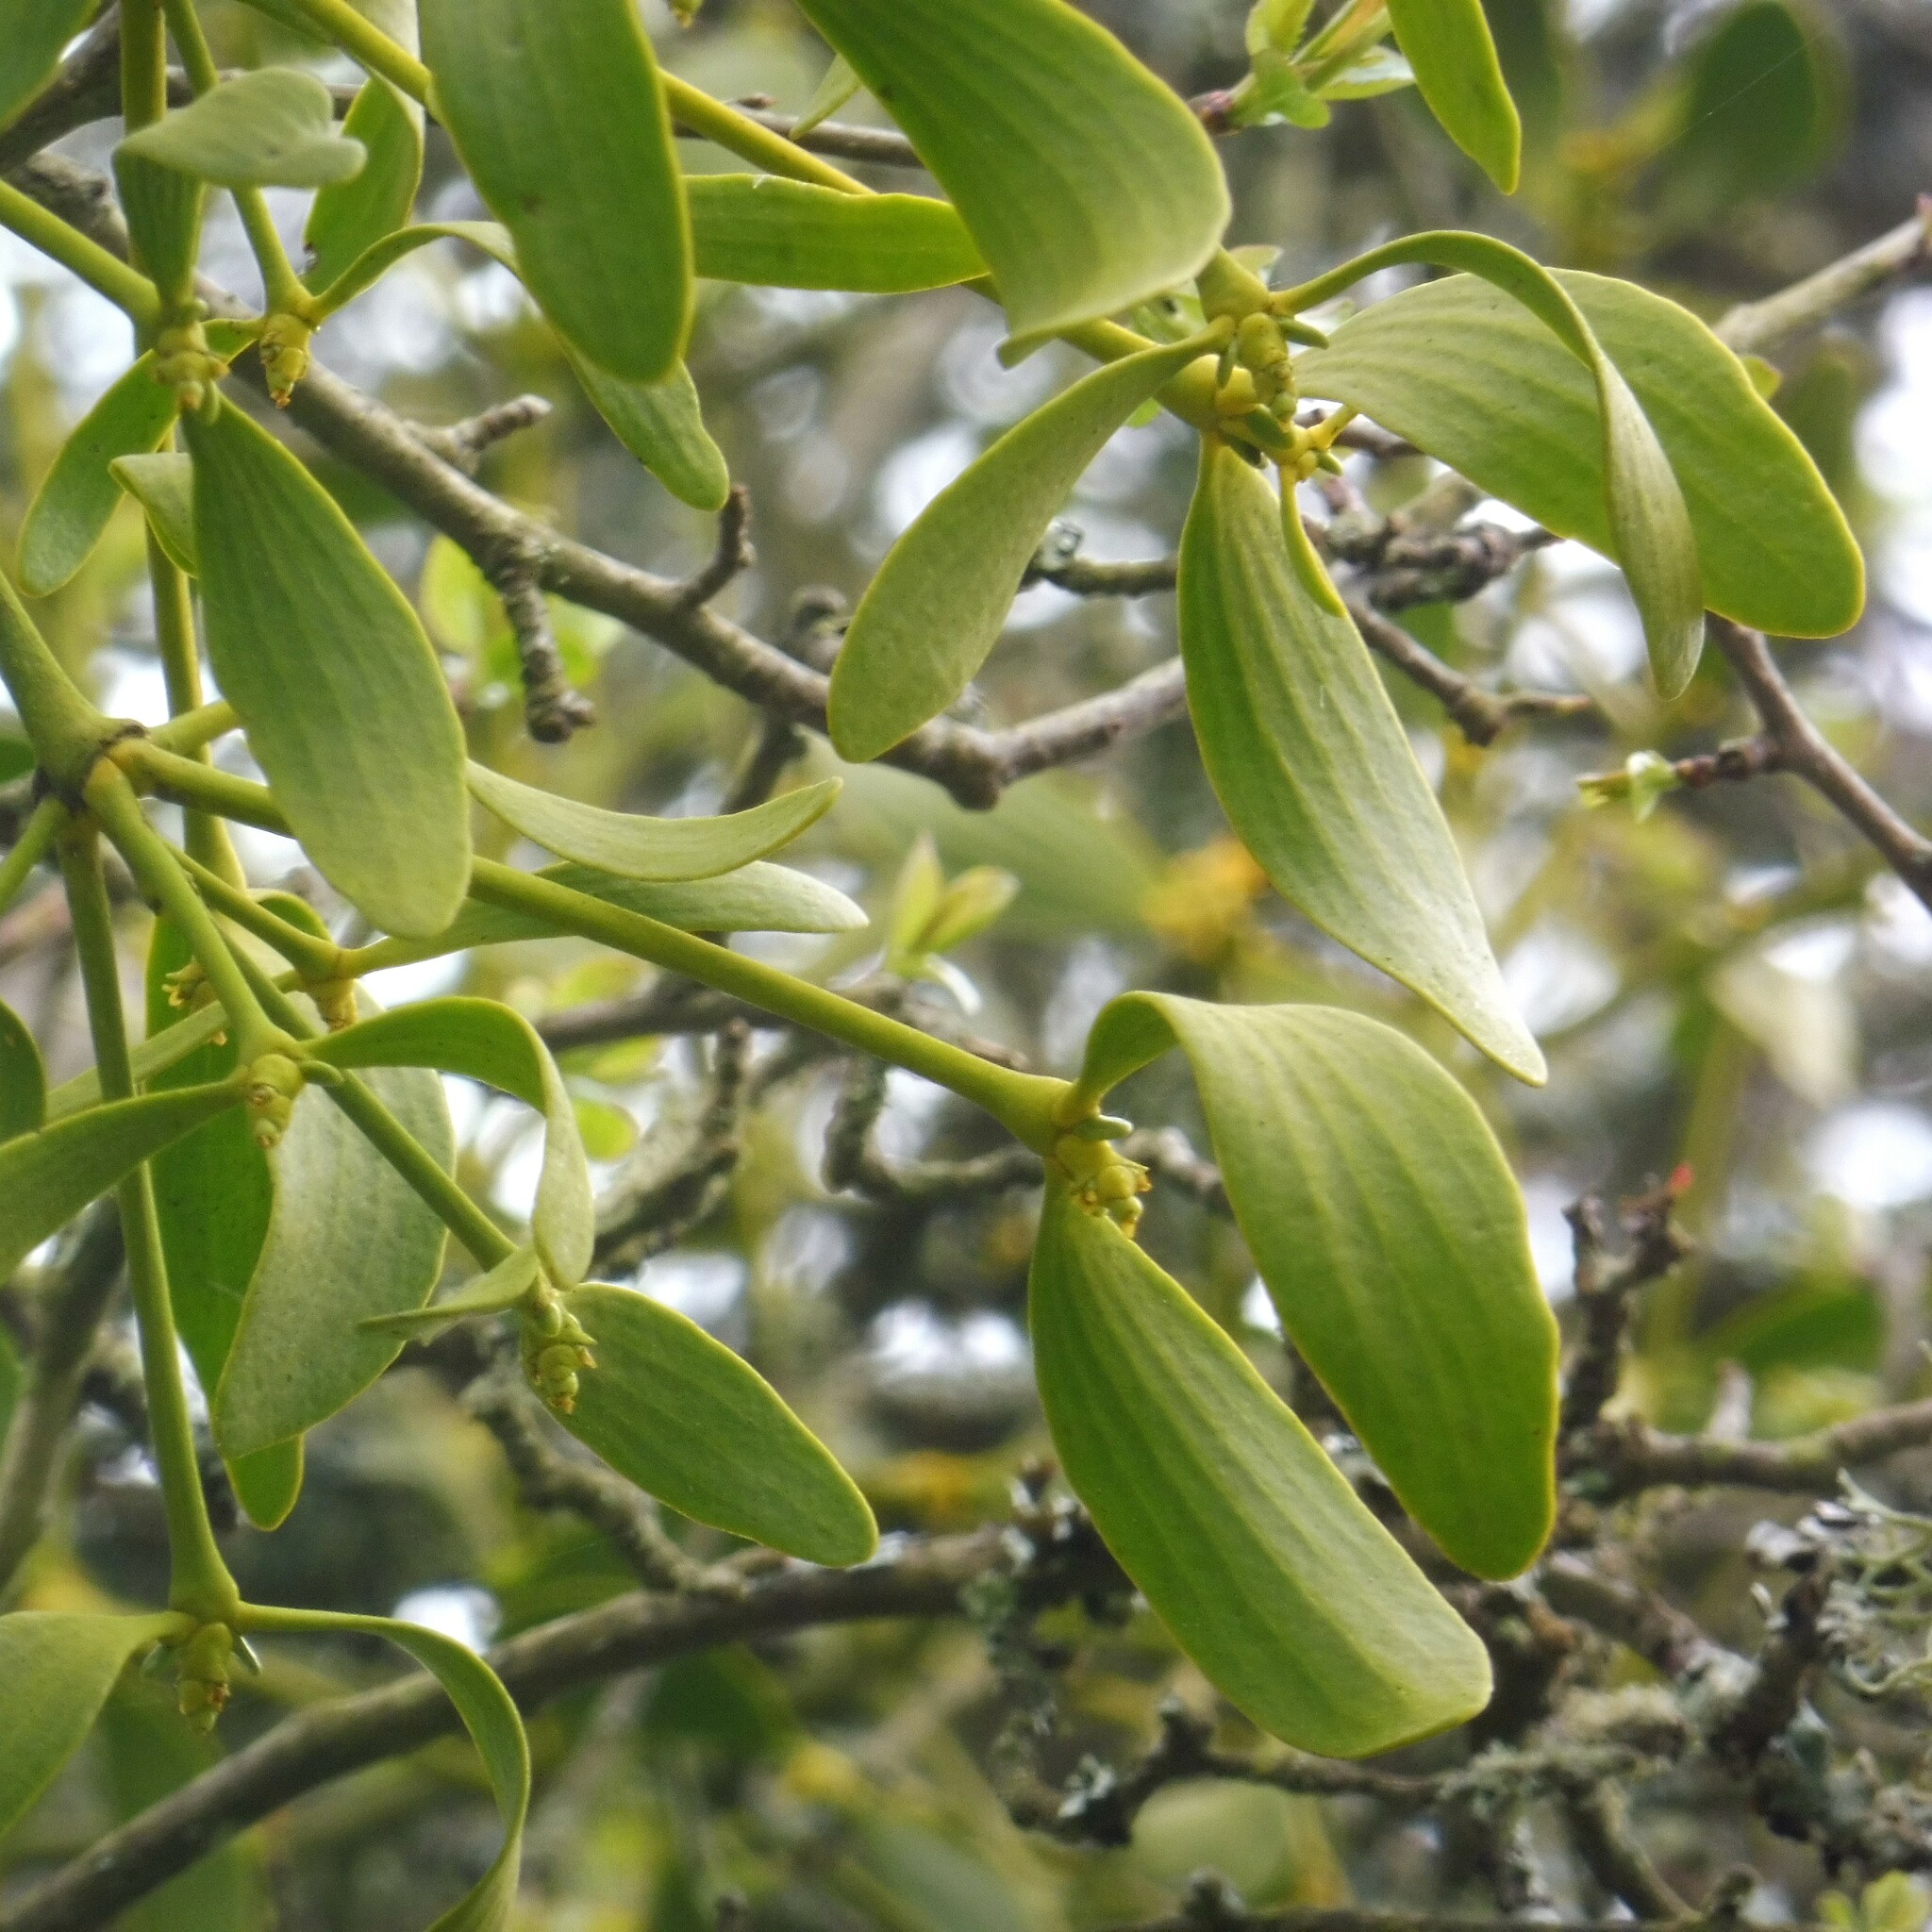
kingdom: Plantae
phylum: Tracheophyta
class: Magnoliopsida
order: Santalales
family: Viscaceae
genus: Viscum
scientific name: Viscum album
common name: Mistletoe
